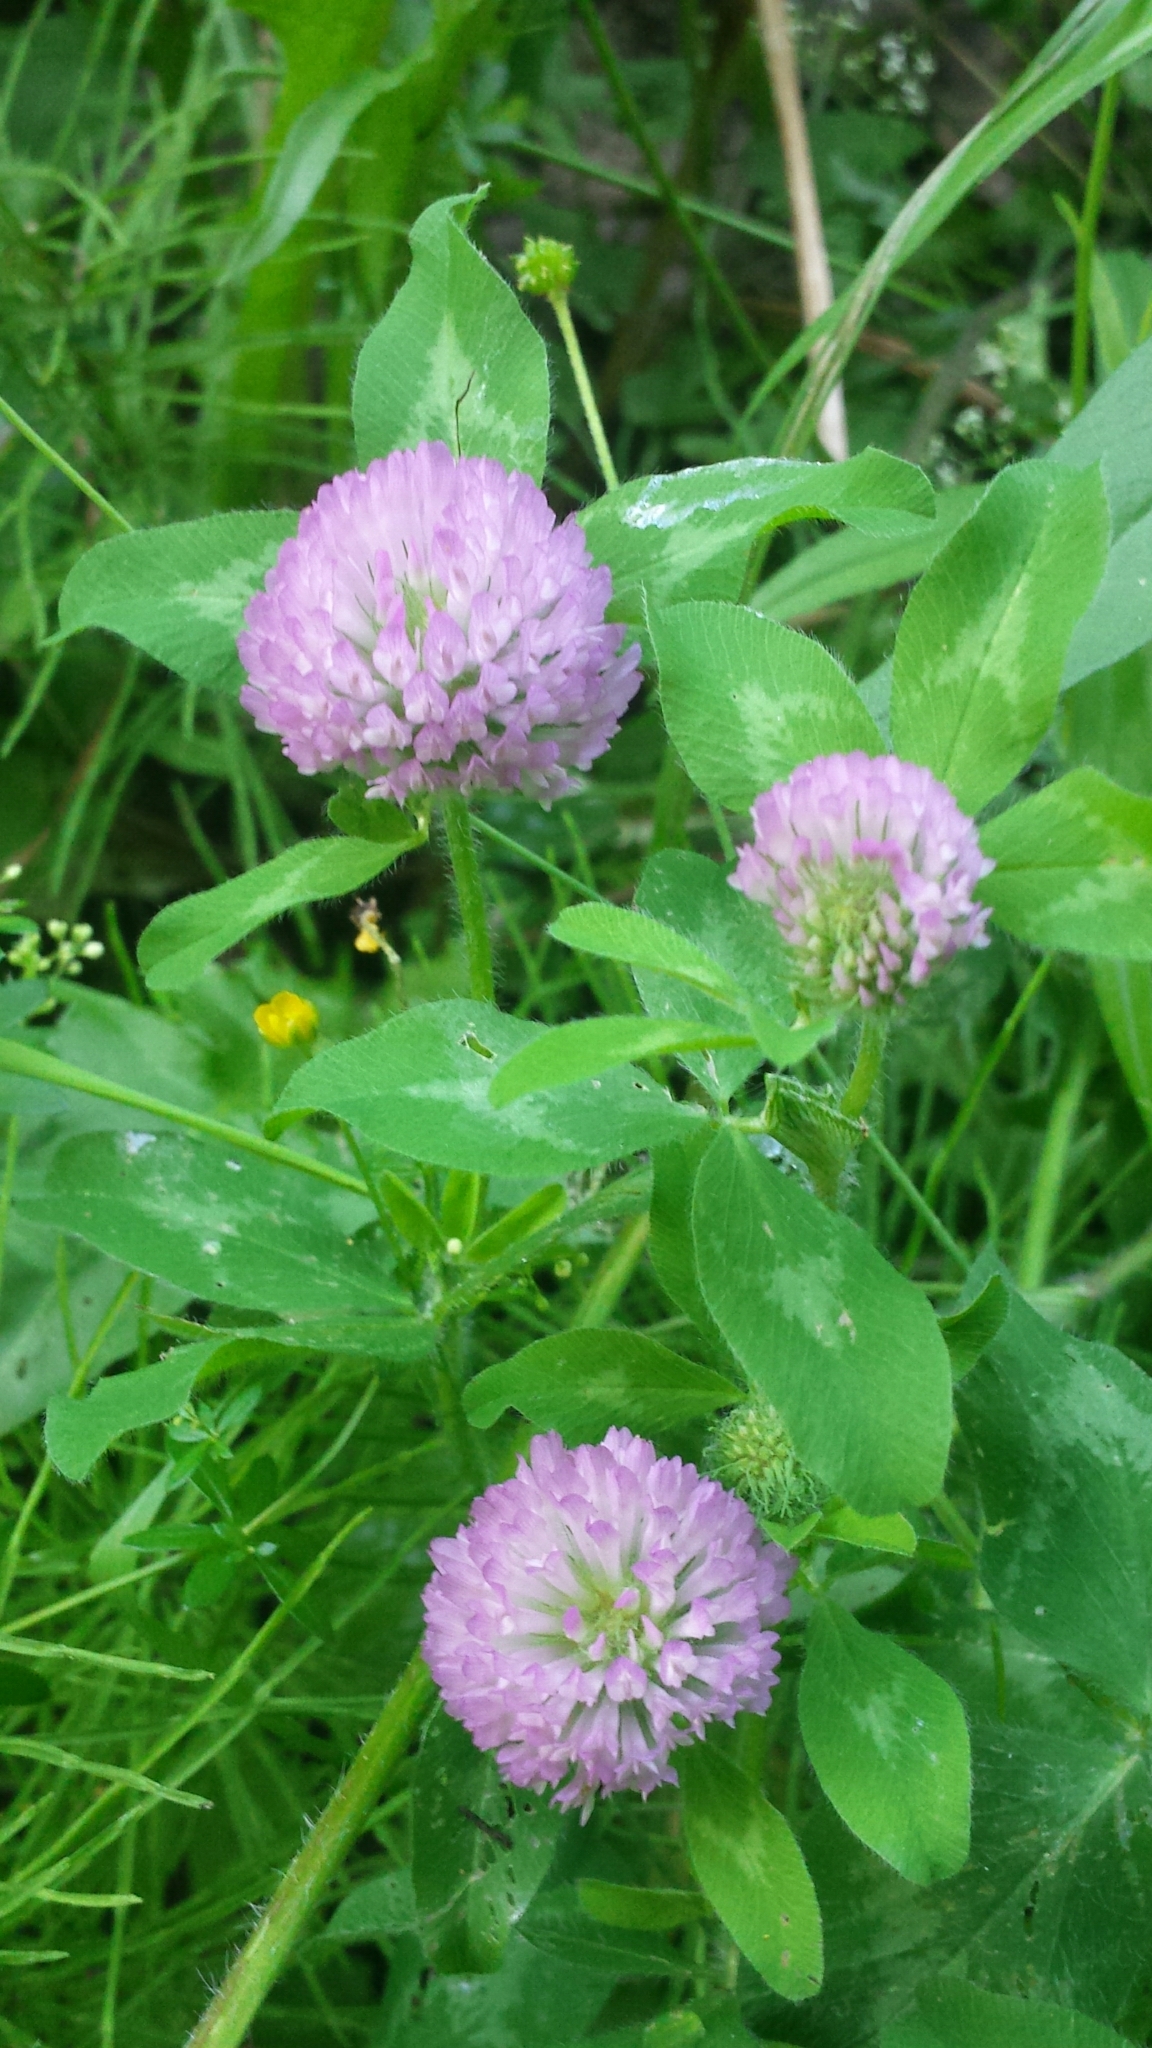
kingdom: Plantae
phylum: Tracheophyta
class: Magnoliopsida
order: Fabales
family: Fabaceae
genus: Trifolium
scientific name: Trifolium pratense
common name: Red clover
